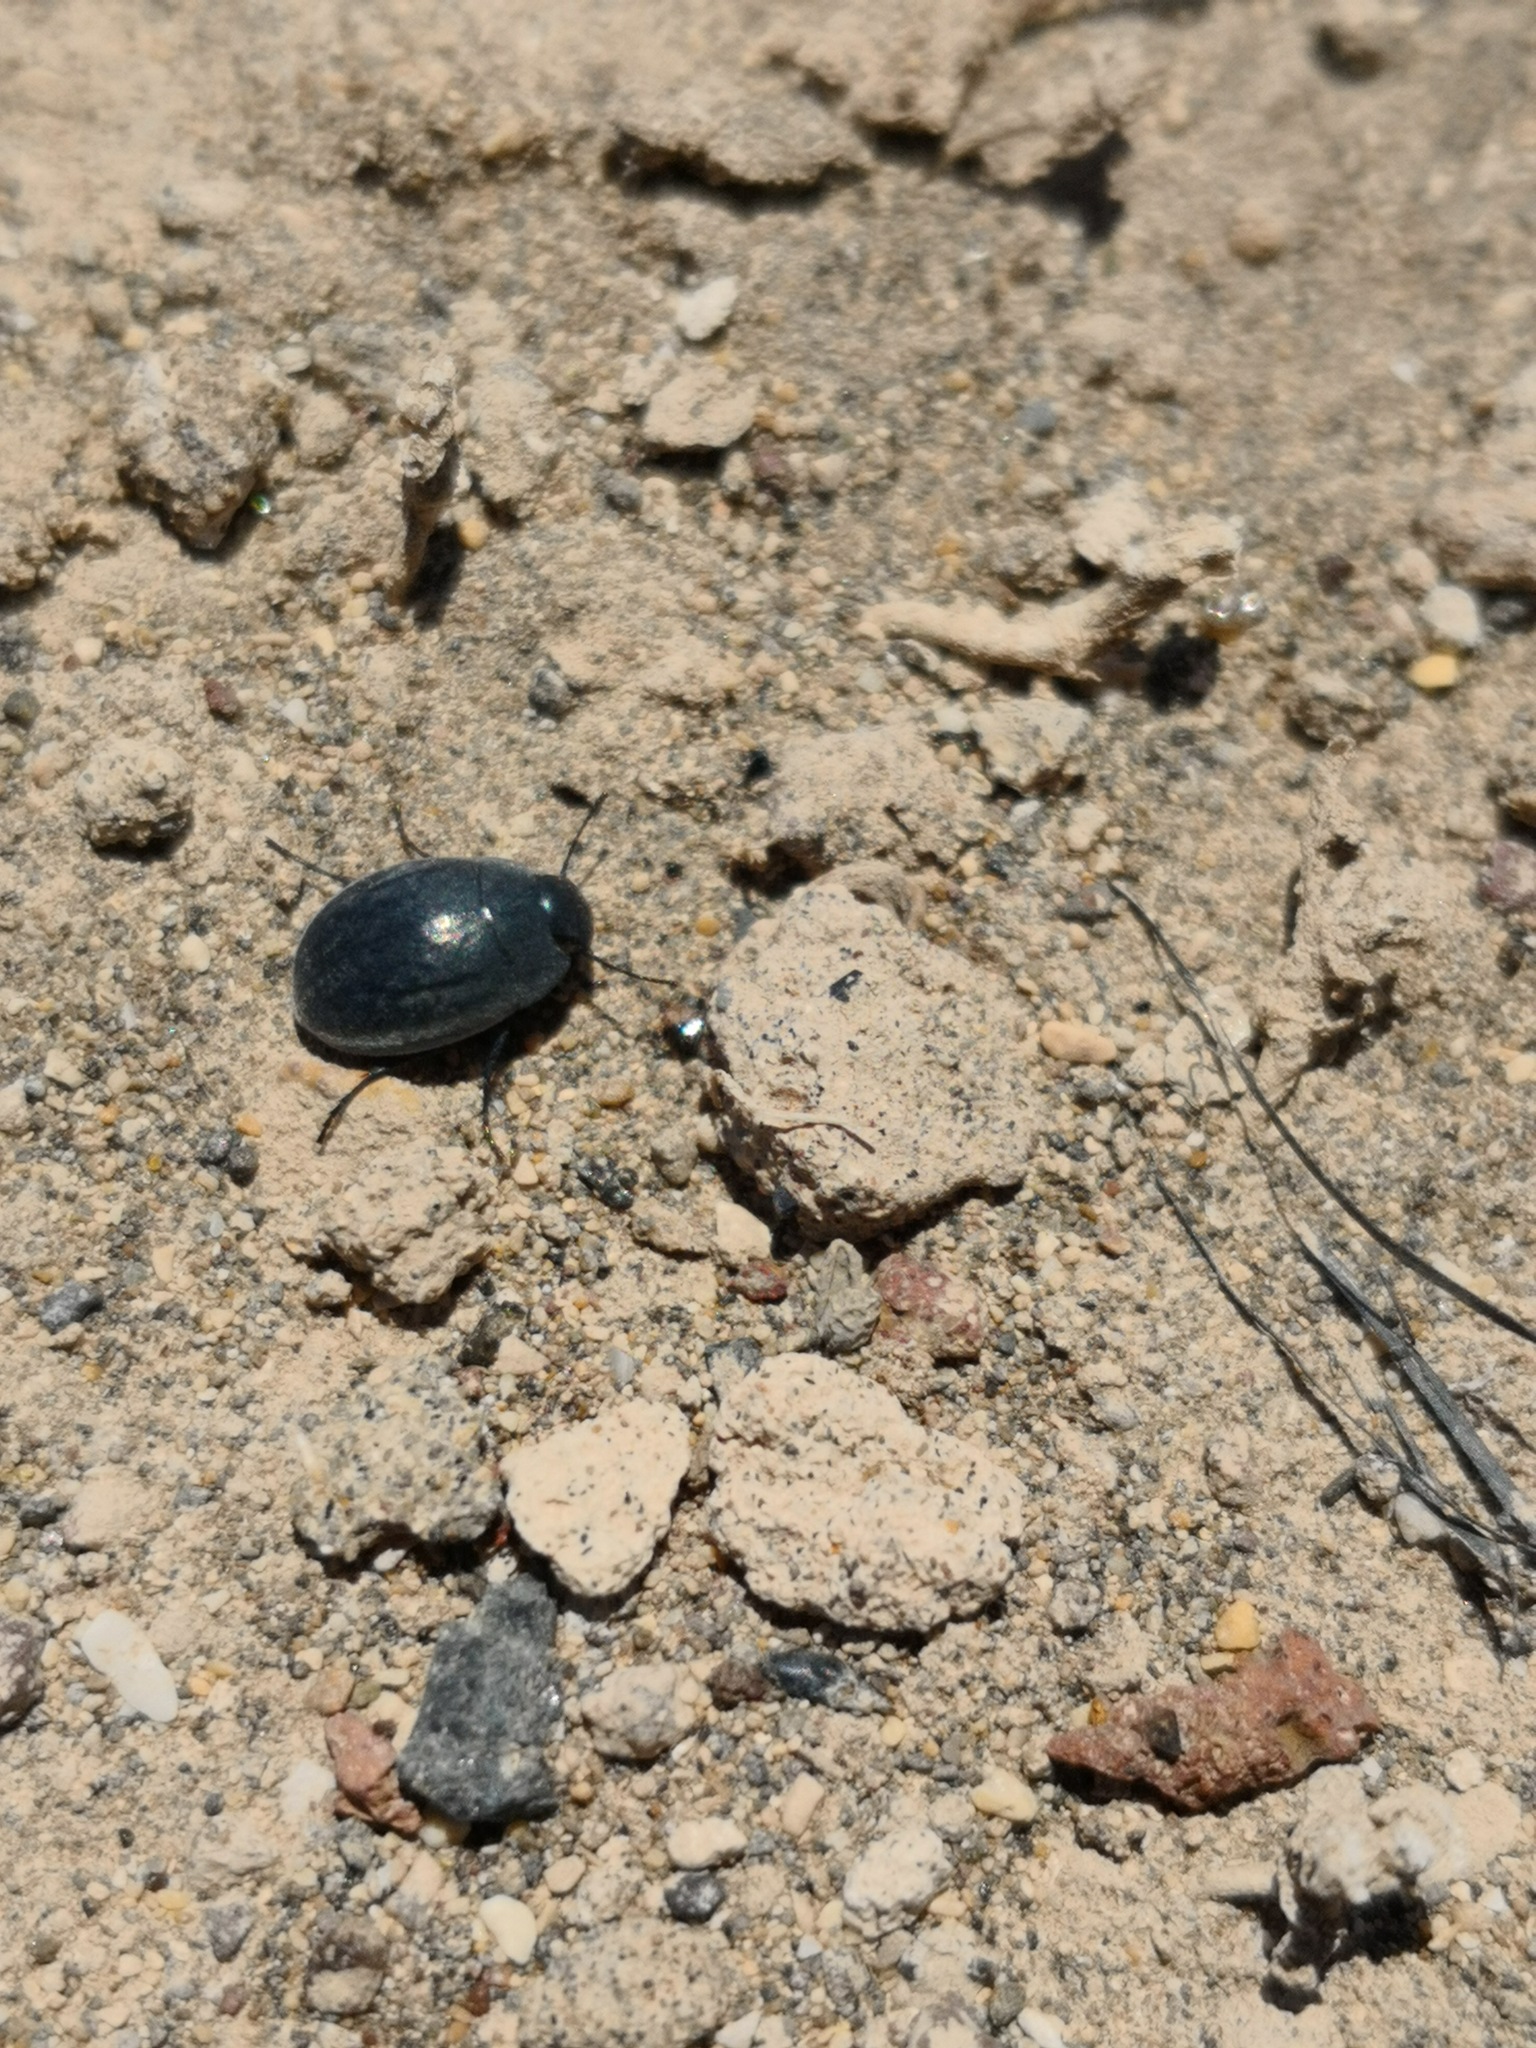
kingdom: Animalia
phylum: Arthropoda
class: Insecta
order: Coleoptera
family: Tenebrionidae
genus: Zophosis
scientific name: Zophosis bicarinata
